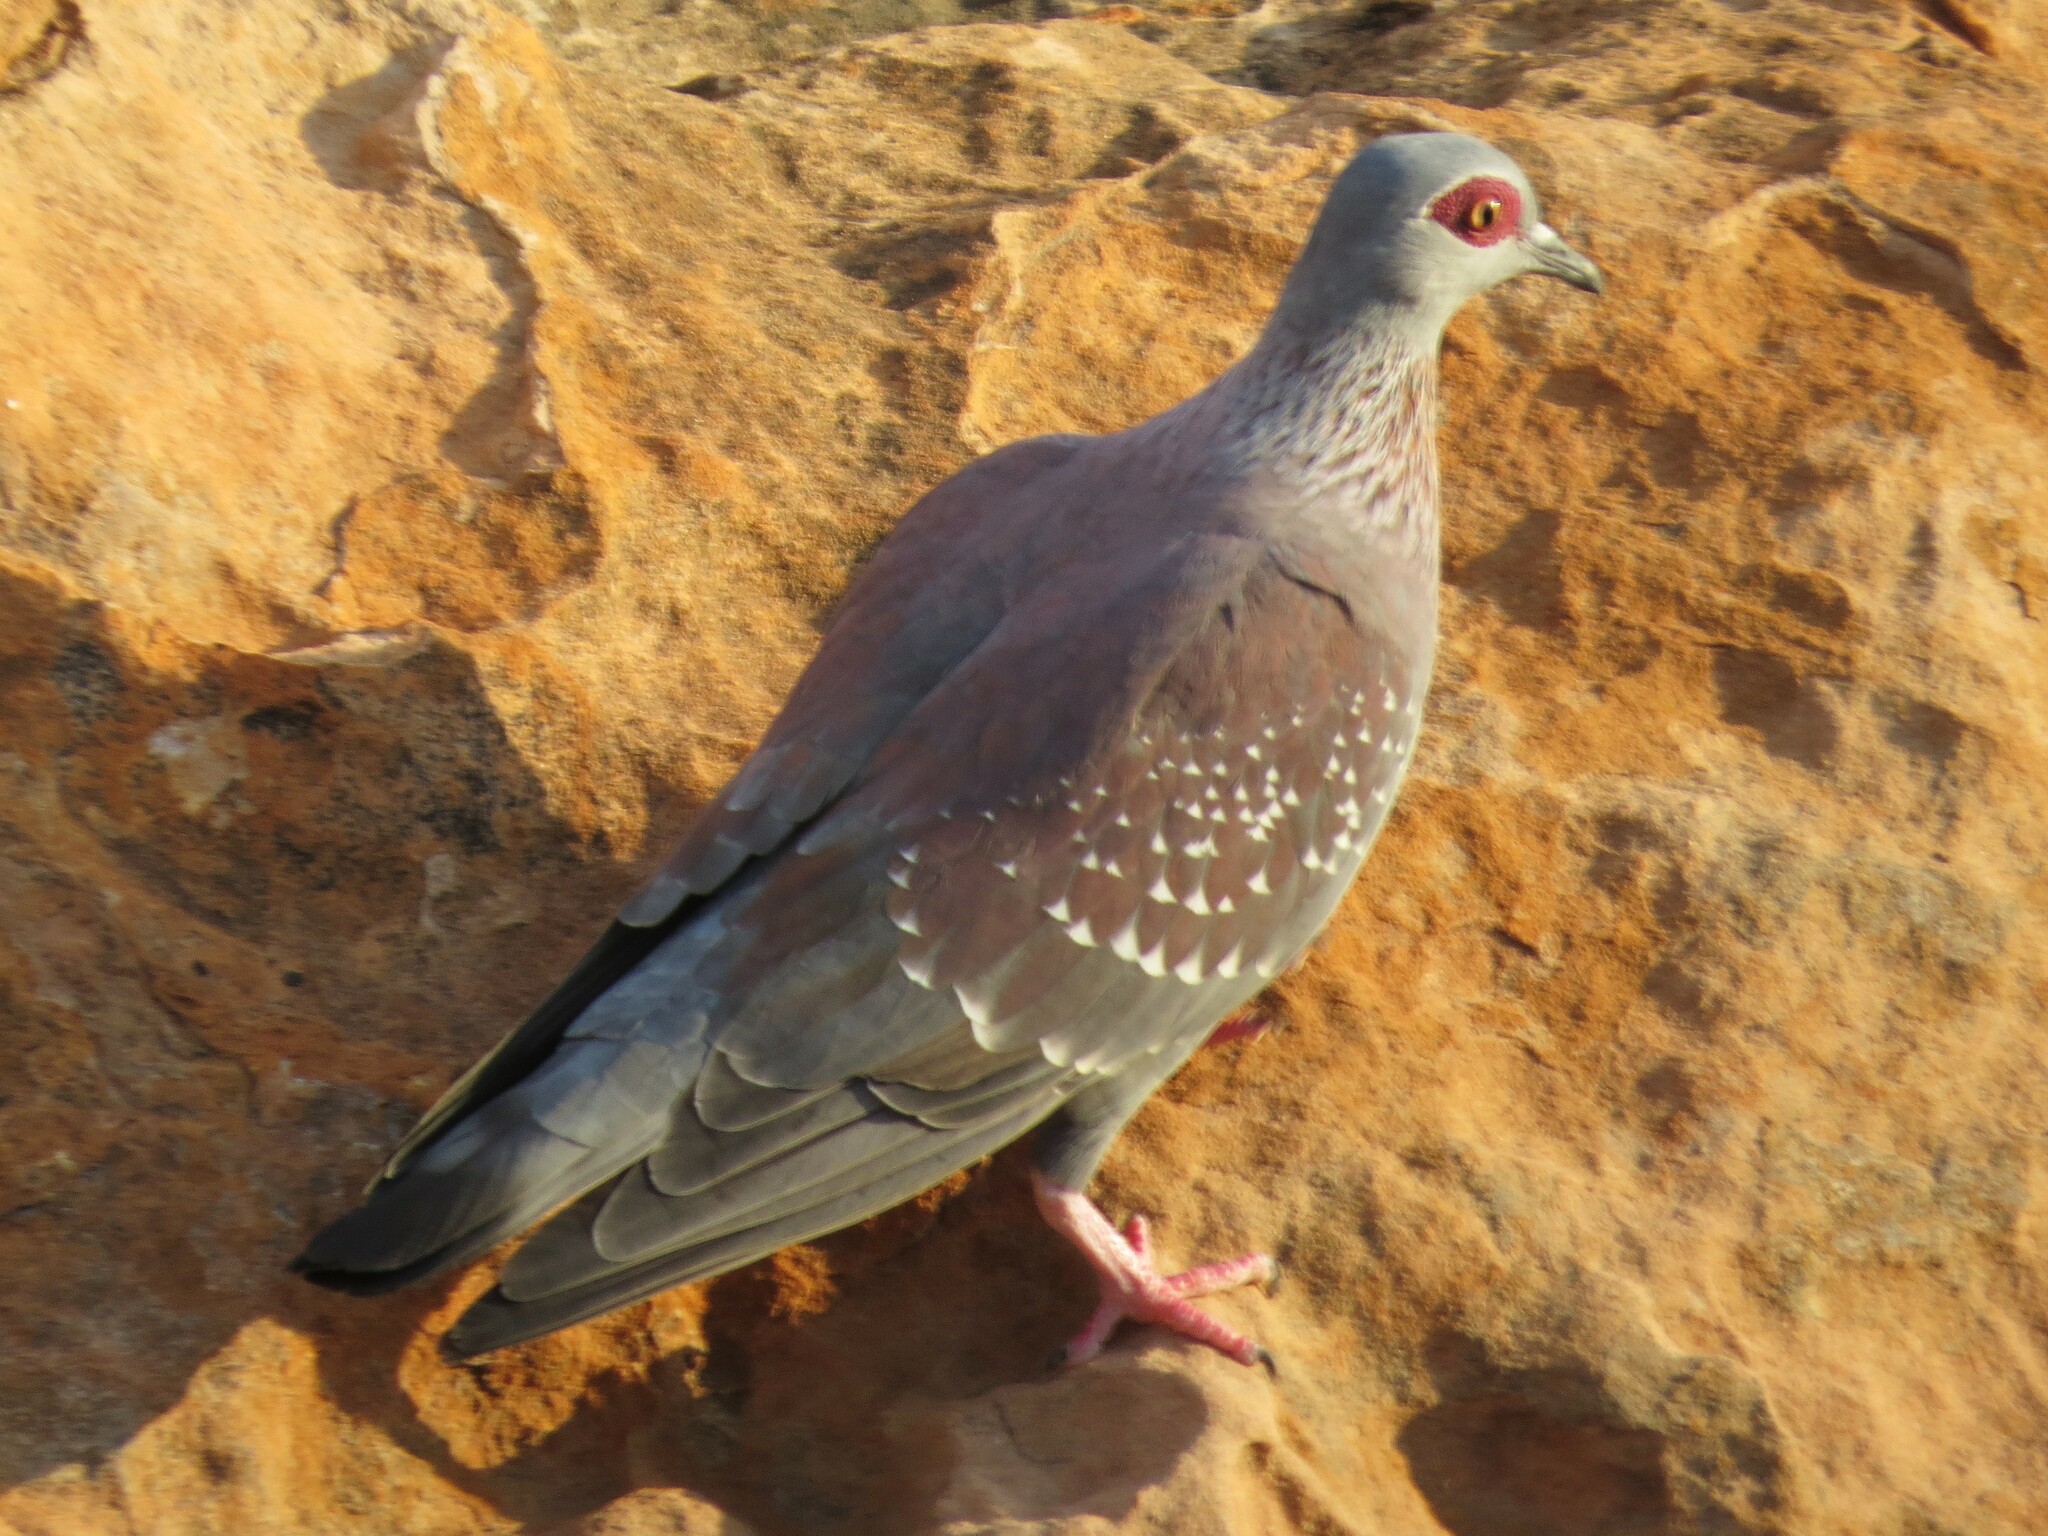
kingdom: Animalia
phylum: Chordata
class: Aves
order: Columbiformes
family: Columbidae
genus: Columba
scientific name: Columba guinea
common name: Speckled pigeon
